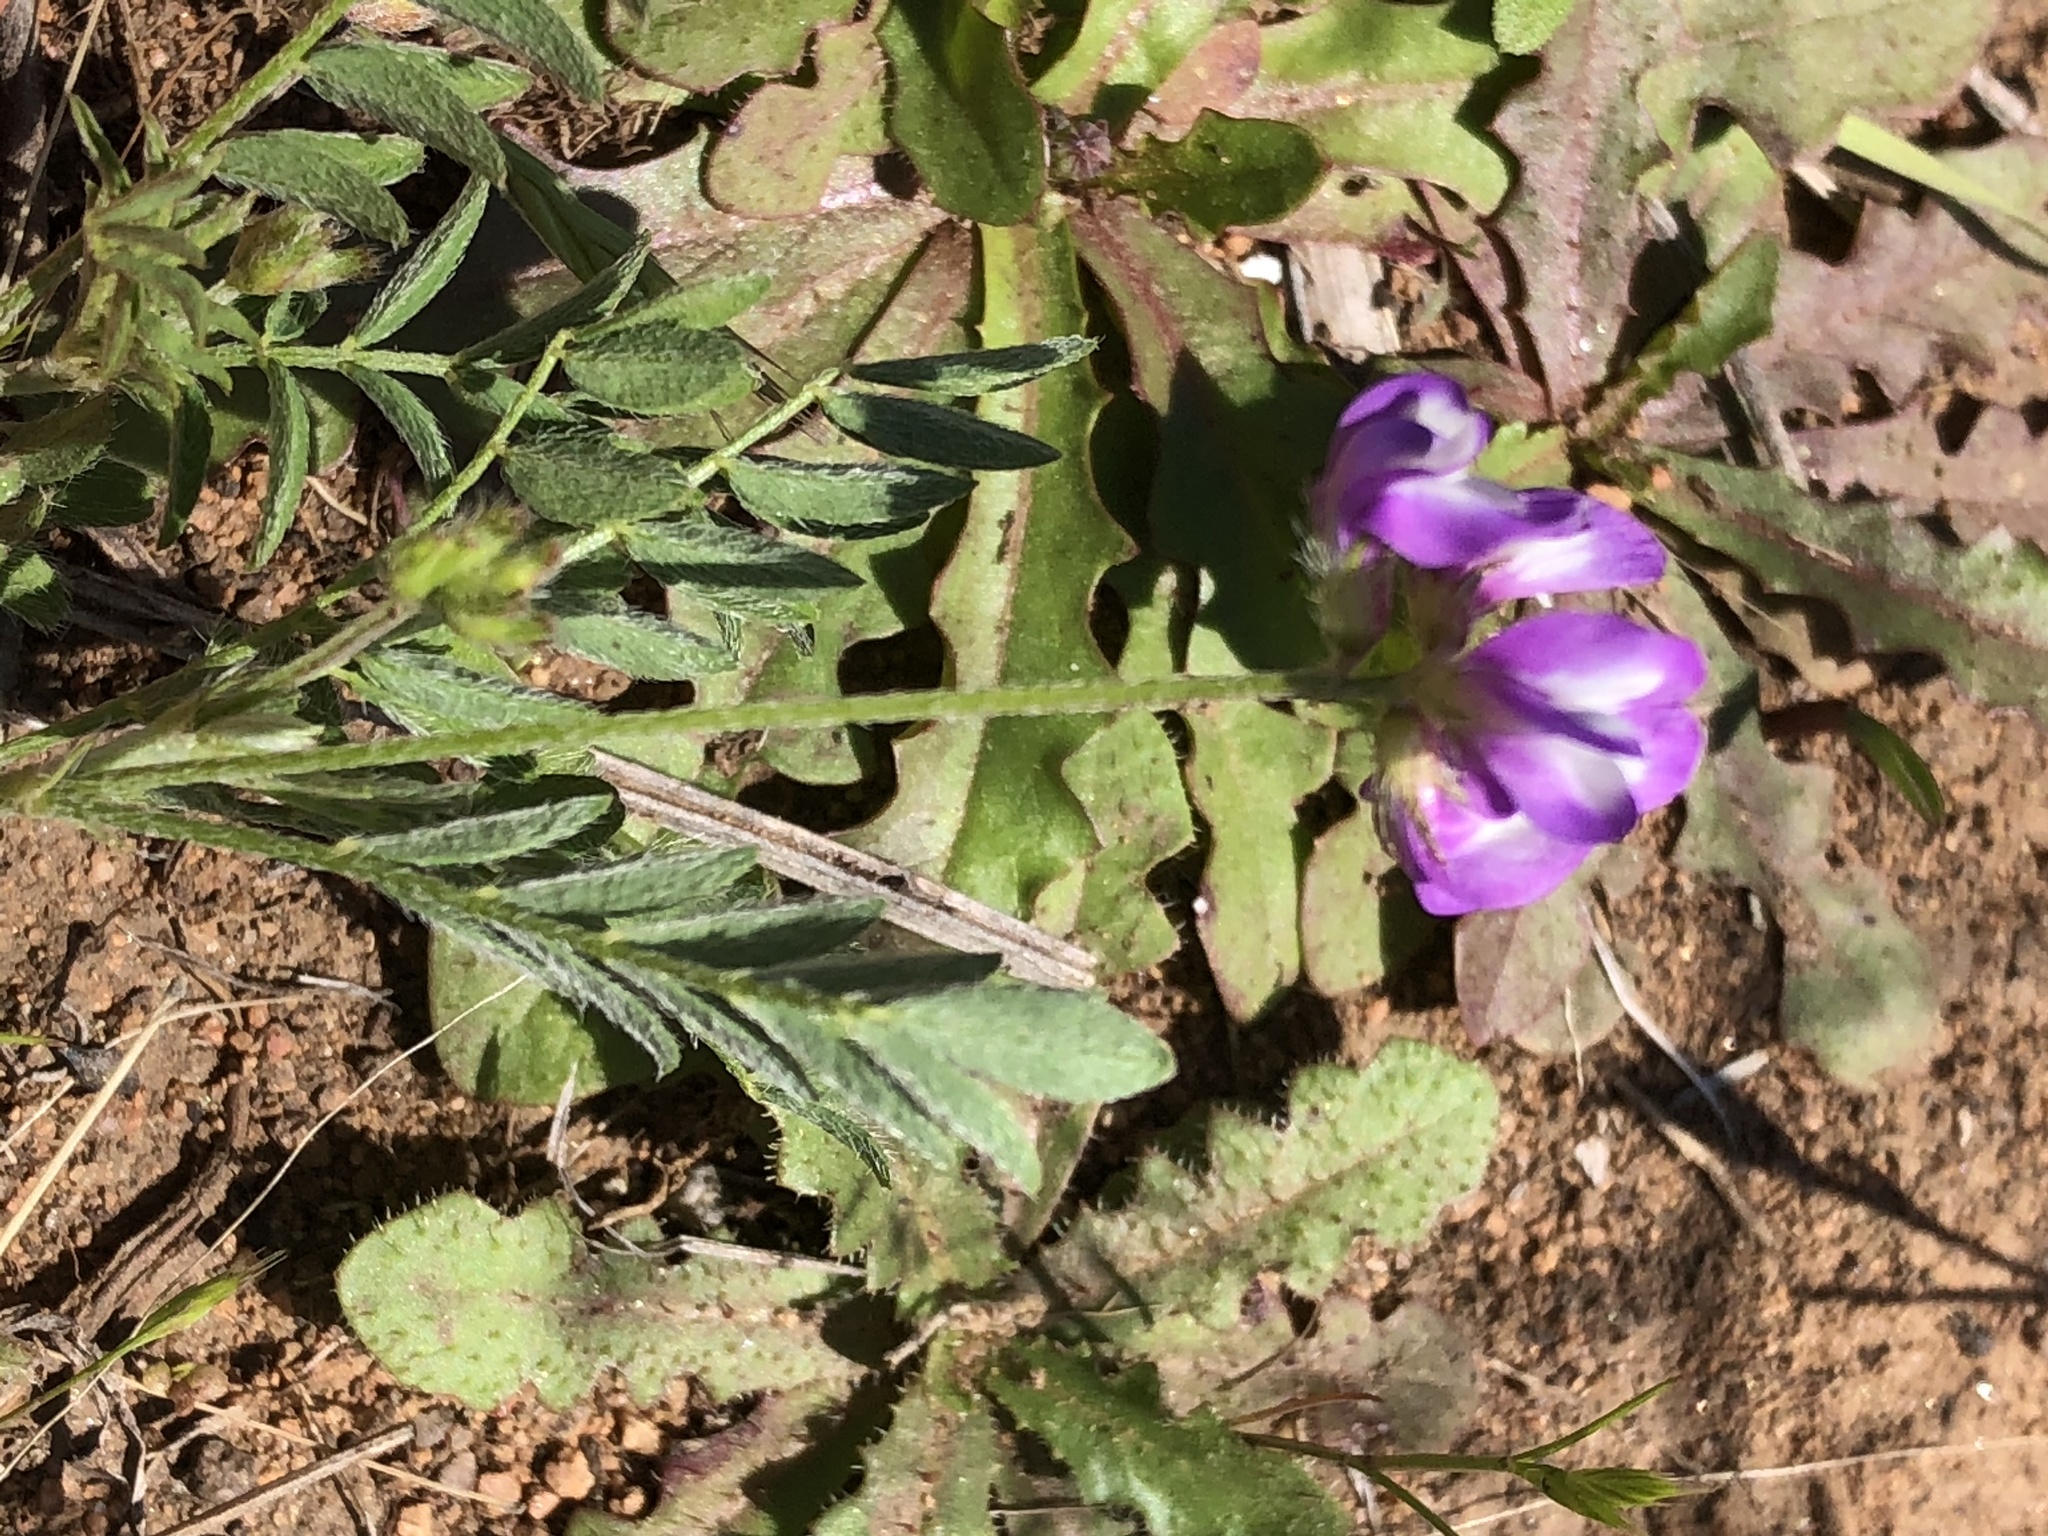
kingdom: Plantae
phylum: Tracheophyta
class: Magnoliopsida
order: Fabales
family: Fabaceae
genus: Astragalus
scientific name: Astragalus nuttallianus
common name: Smallflowered milkvetch
